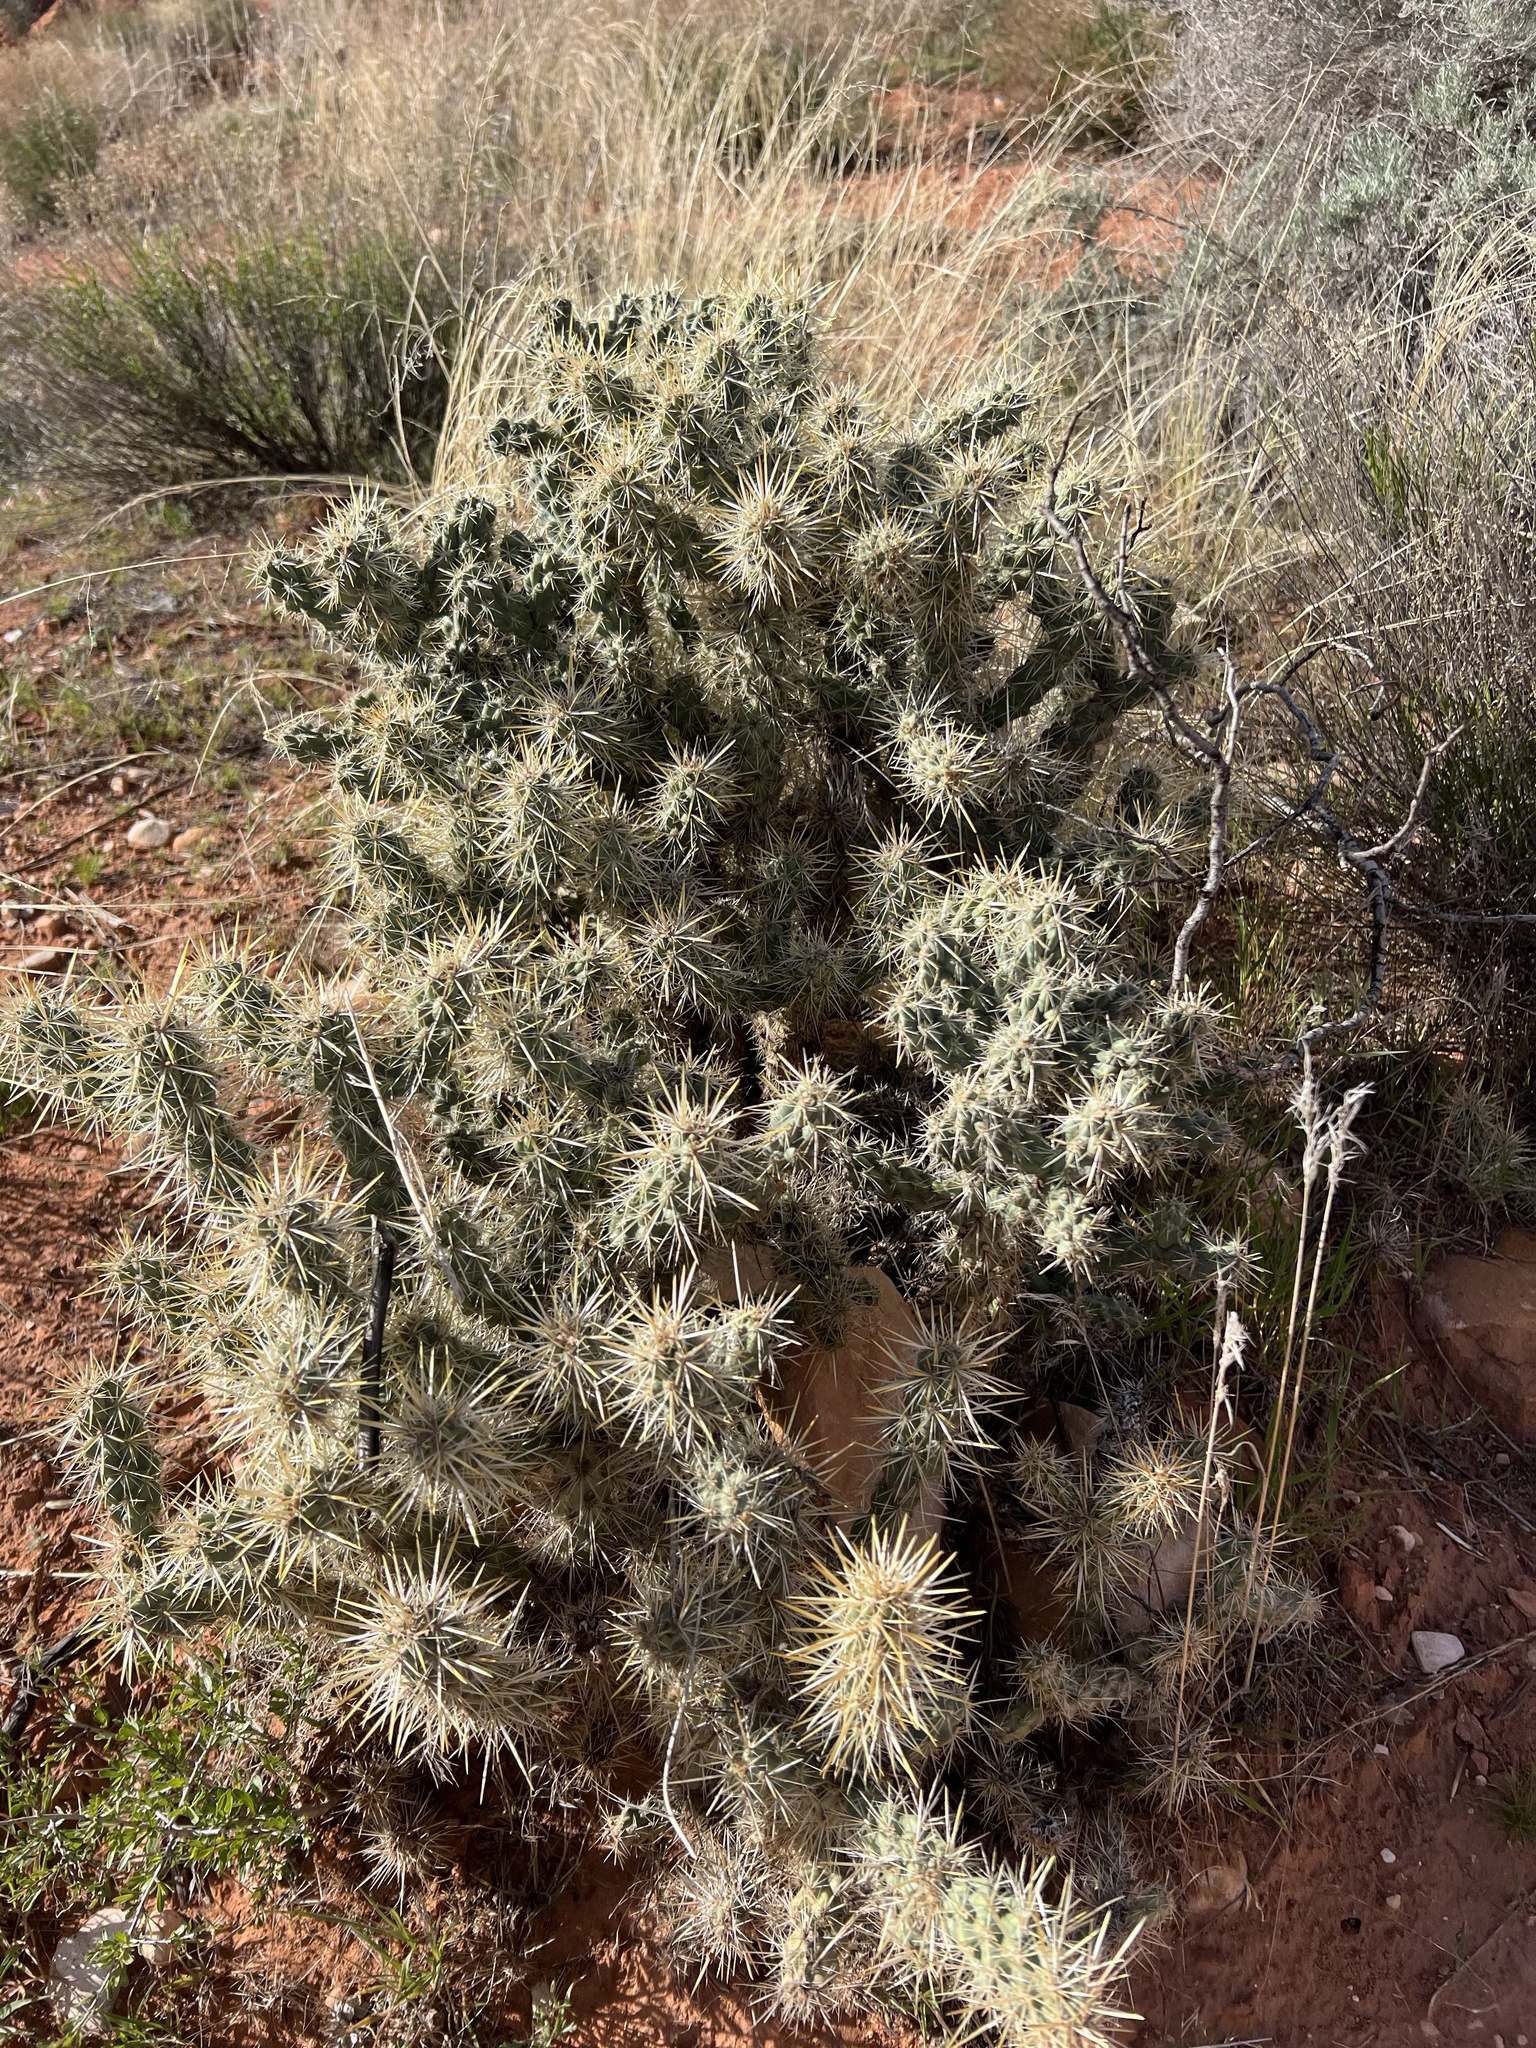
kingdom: Plantae
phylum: Tracheophyta
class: Magnoliopsida
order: Caryophyllales
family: Cactaceae
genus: Cylindropuntia
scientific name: Cylindropuntia echinocarpa
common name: Ground cholla
